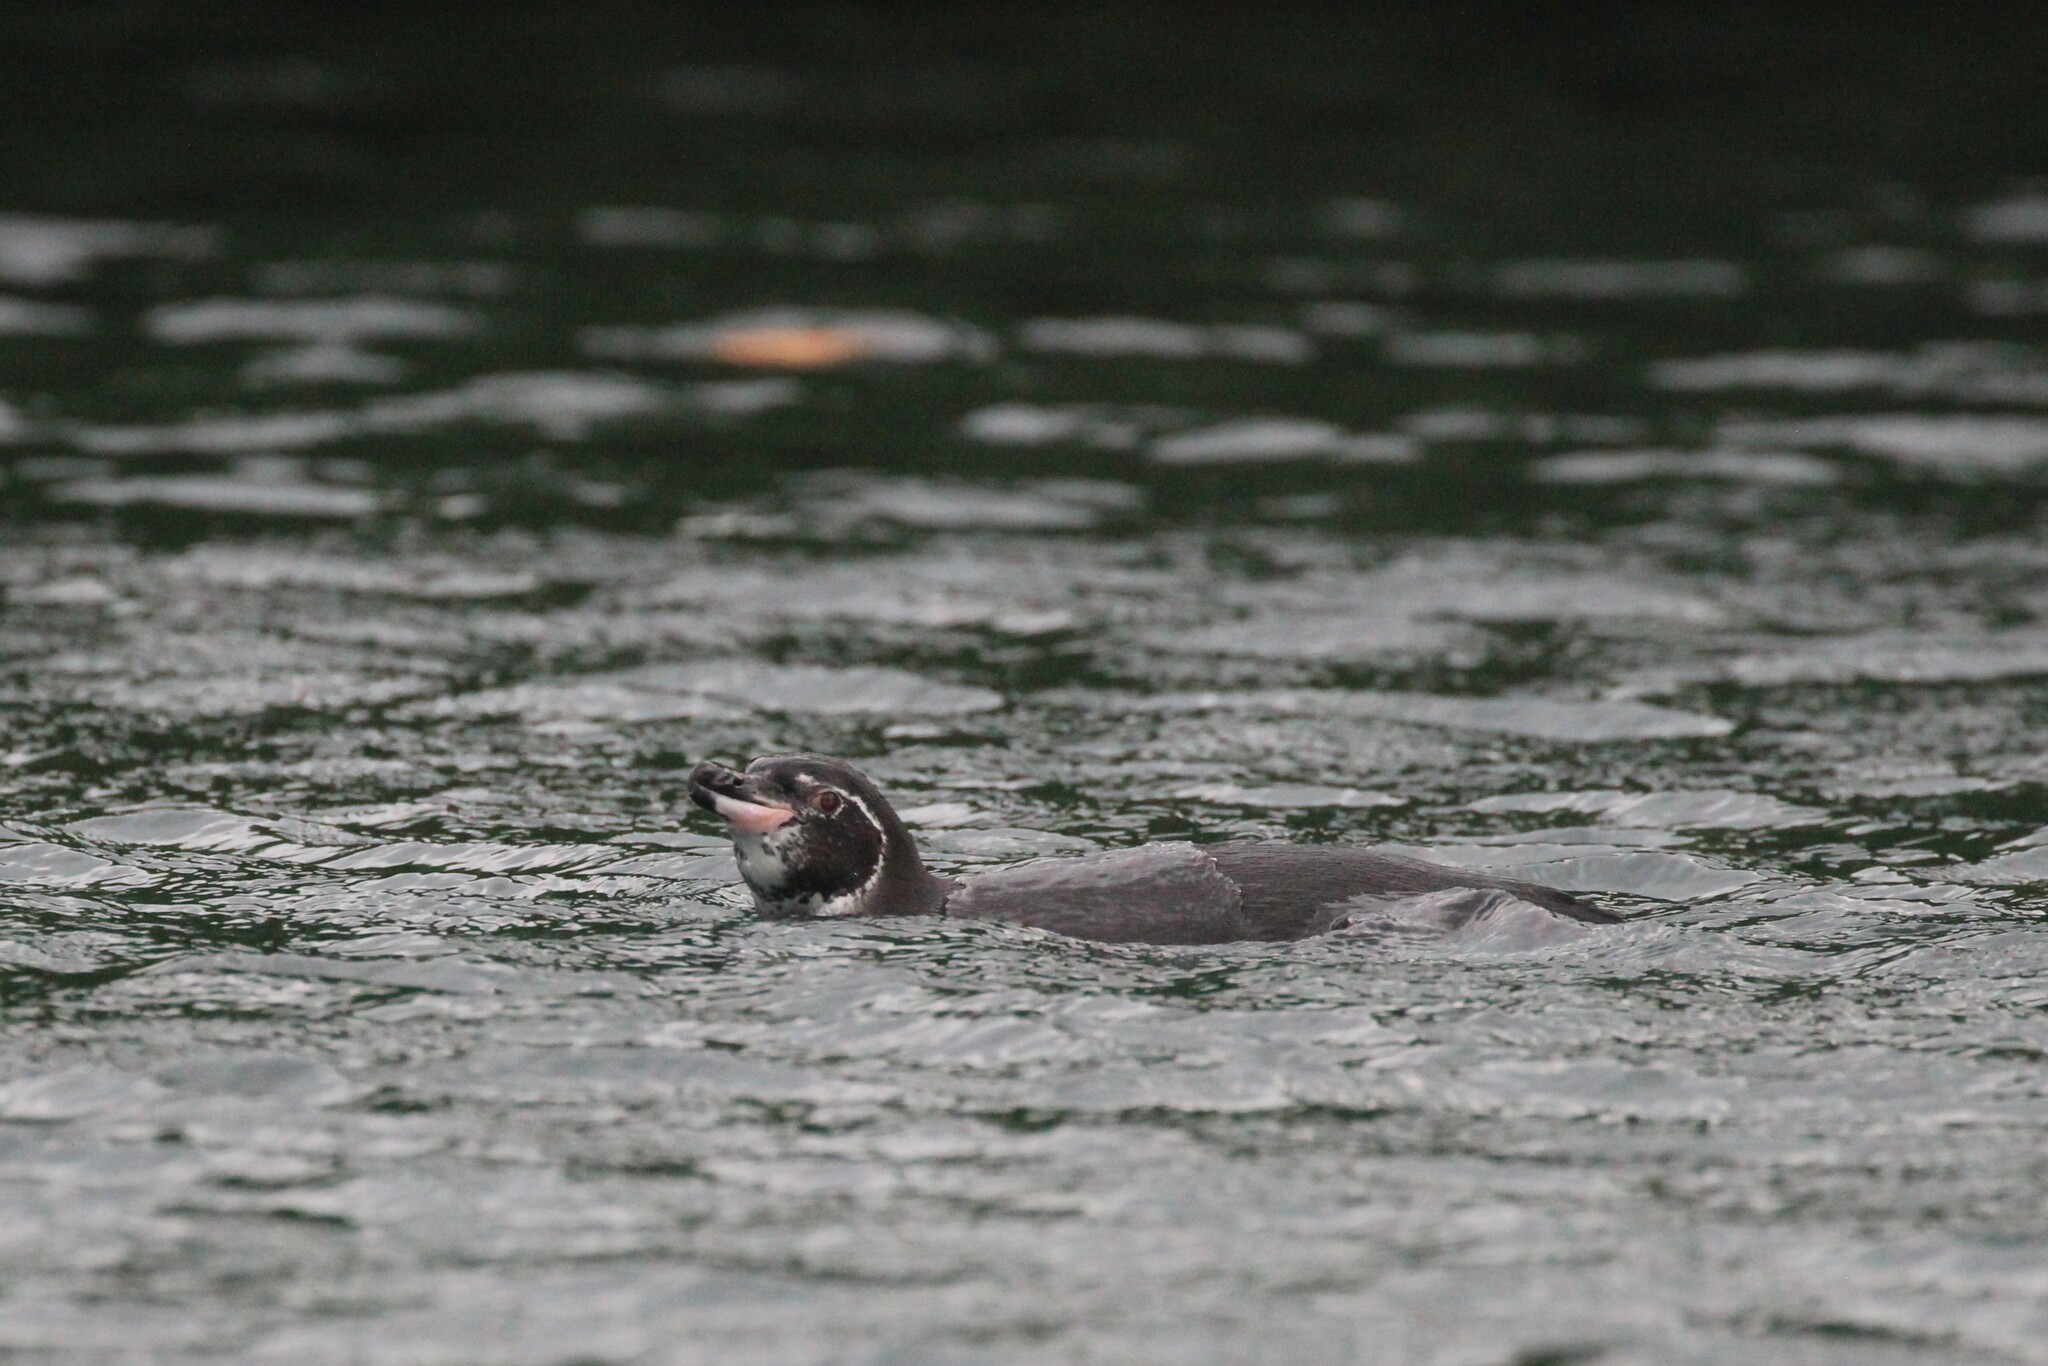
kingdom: Animalia
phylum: Chordata
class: Aves
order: Sphenisciformes
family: Spheniscidae
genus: Spheniscus
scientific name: Spheniscus mendiculus
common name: Galapagos penguin
